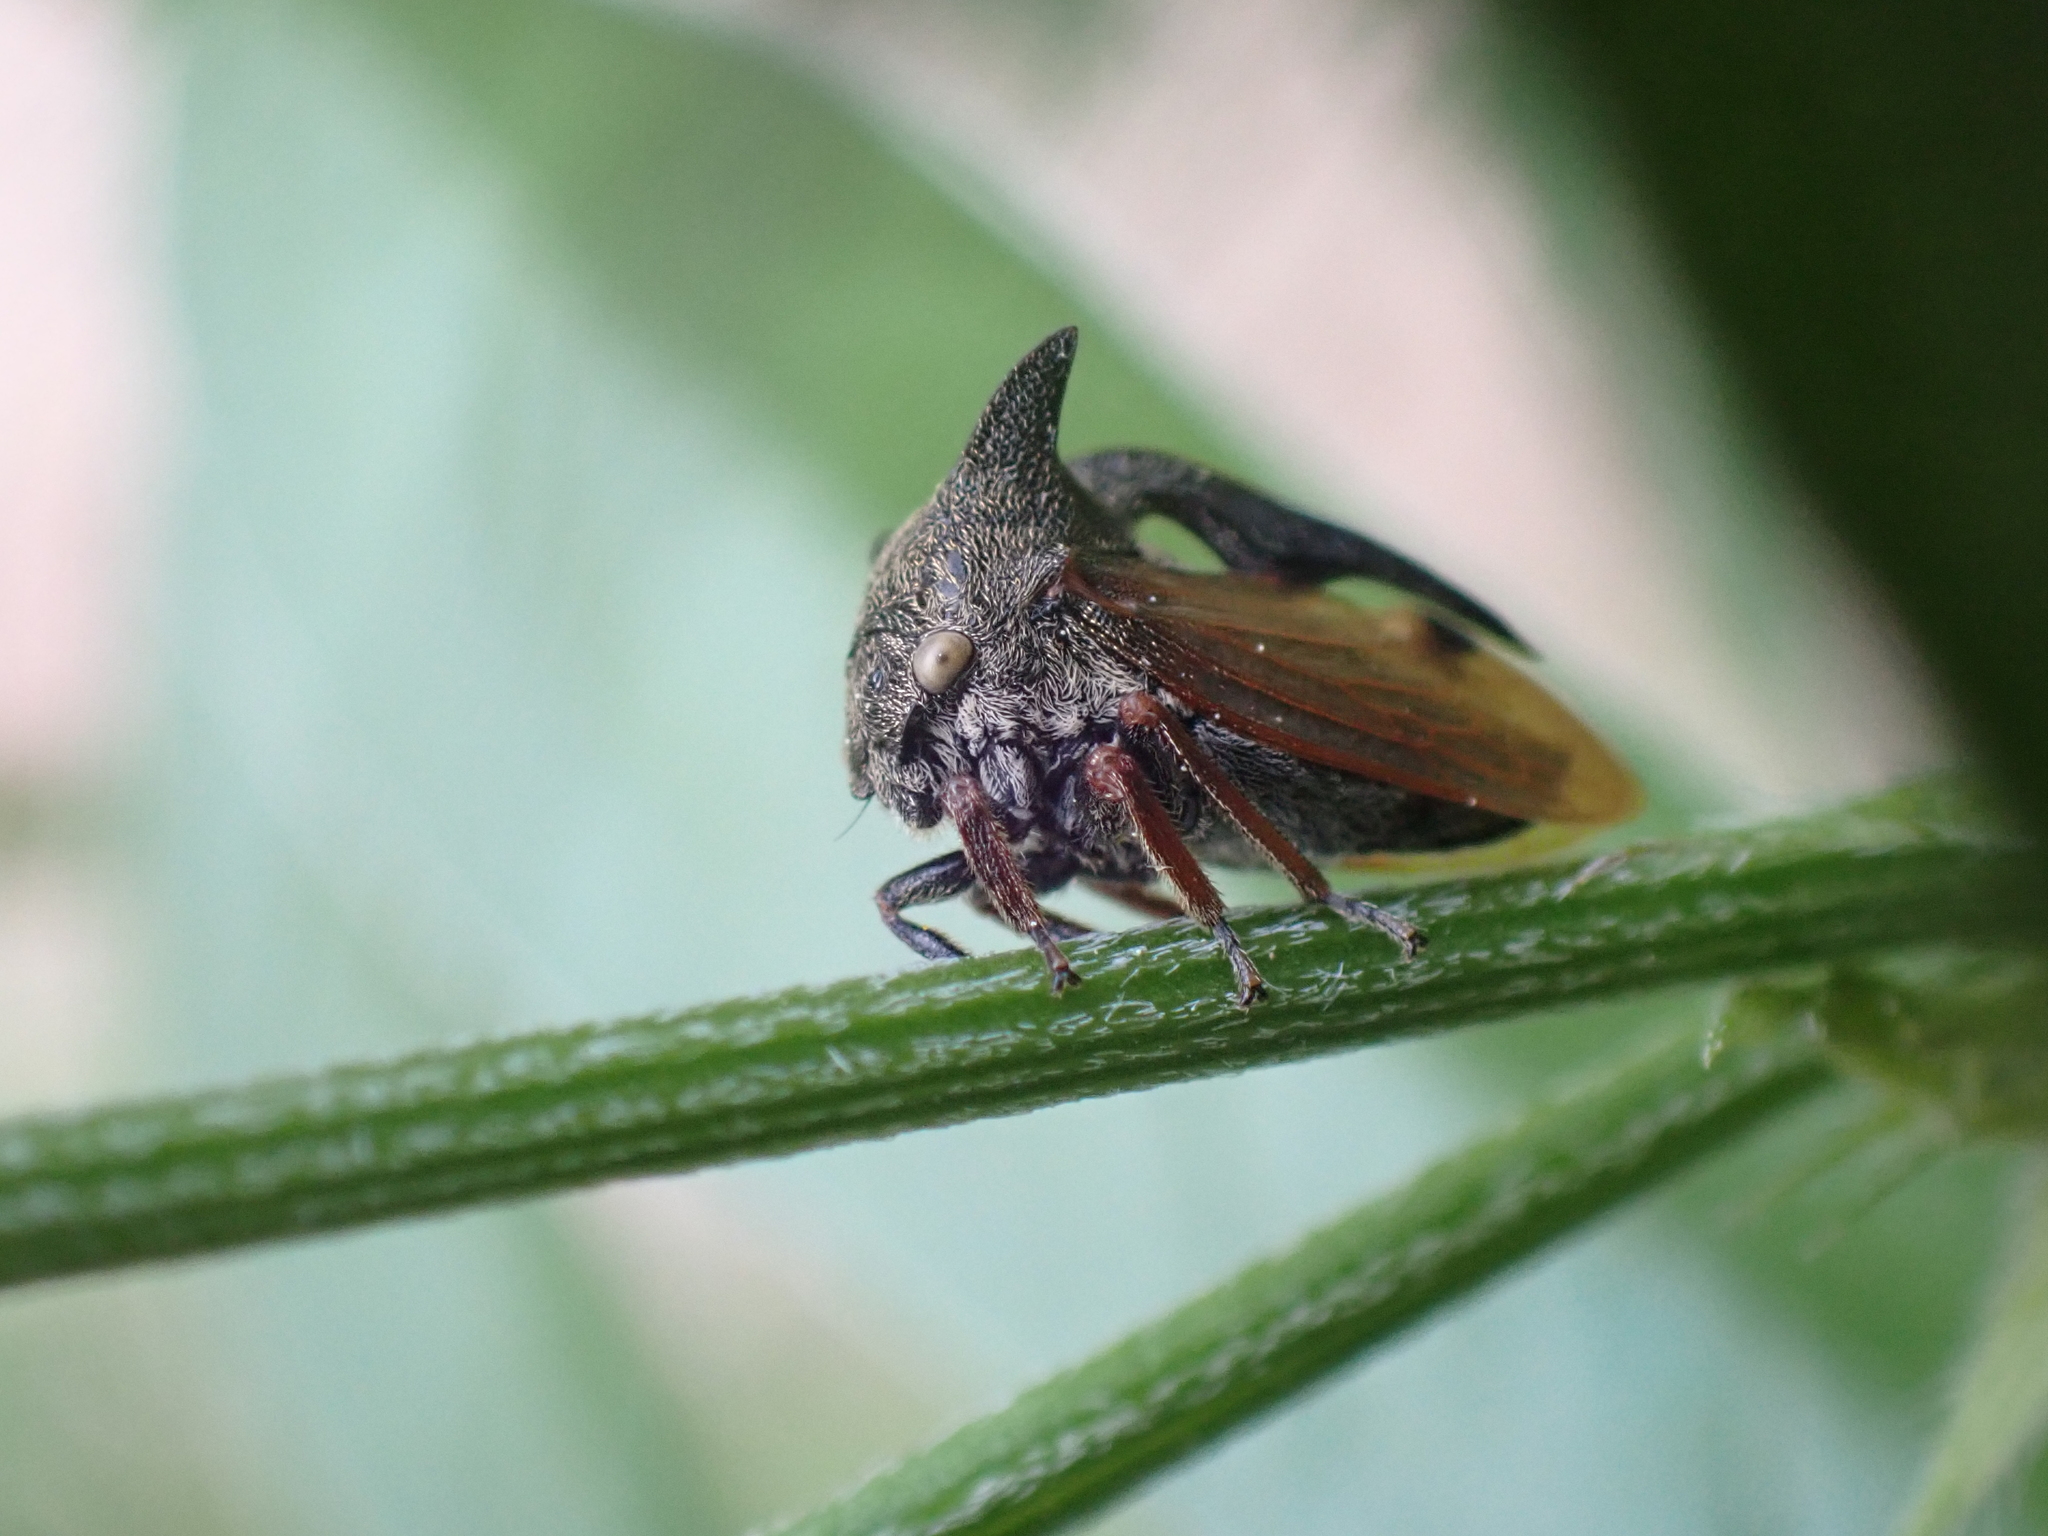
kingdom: Animalia
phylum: Arthropoda
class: Insecta
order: Hemiptera
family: Membracidae
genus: Centrotus
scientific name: Centrotus cornuta
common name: Treehopper
